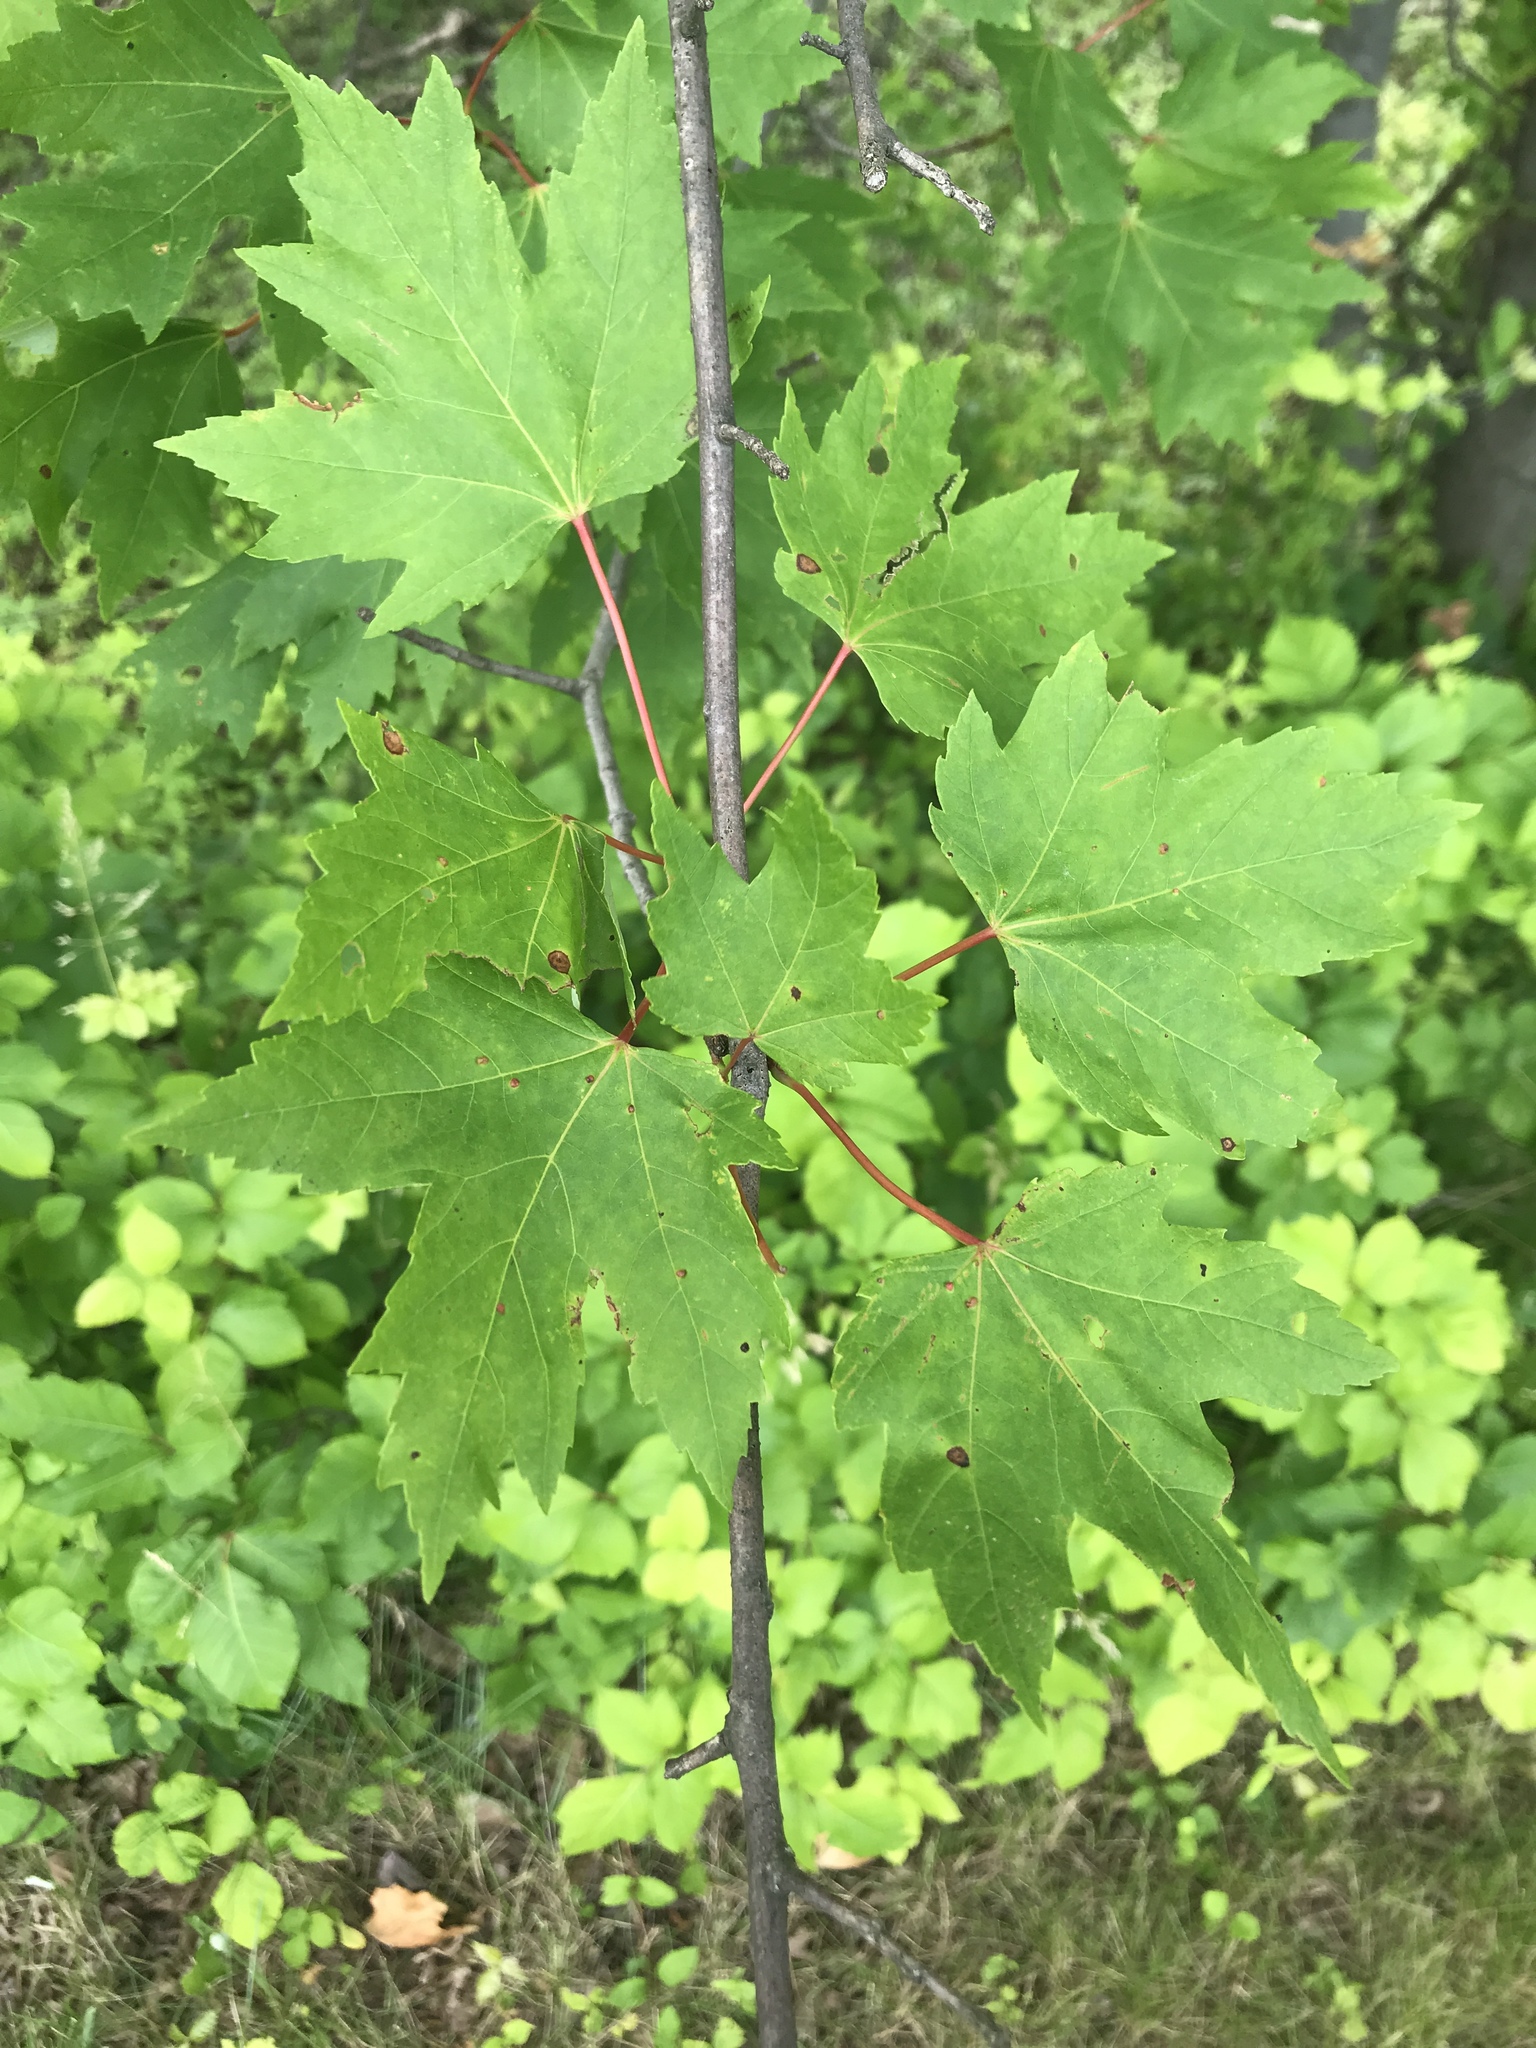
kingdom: Plantae
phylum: Tracheophyta
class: Magnoliopsida
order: Sapindales
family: Sapindaceae
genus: Acer
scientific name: Acer rubrum
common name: Red maple
